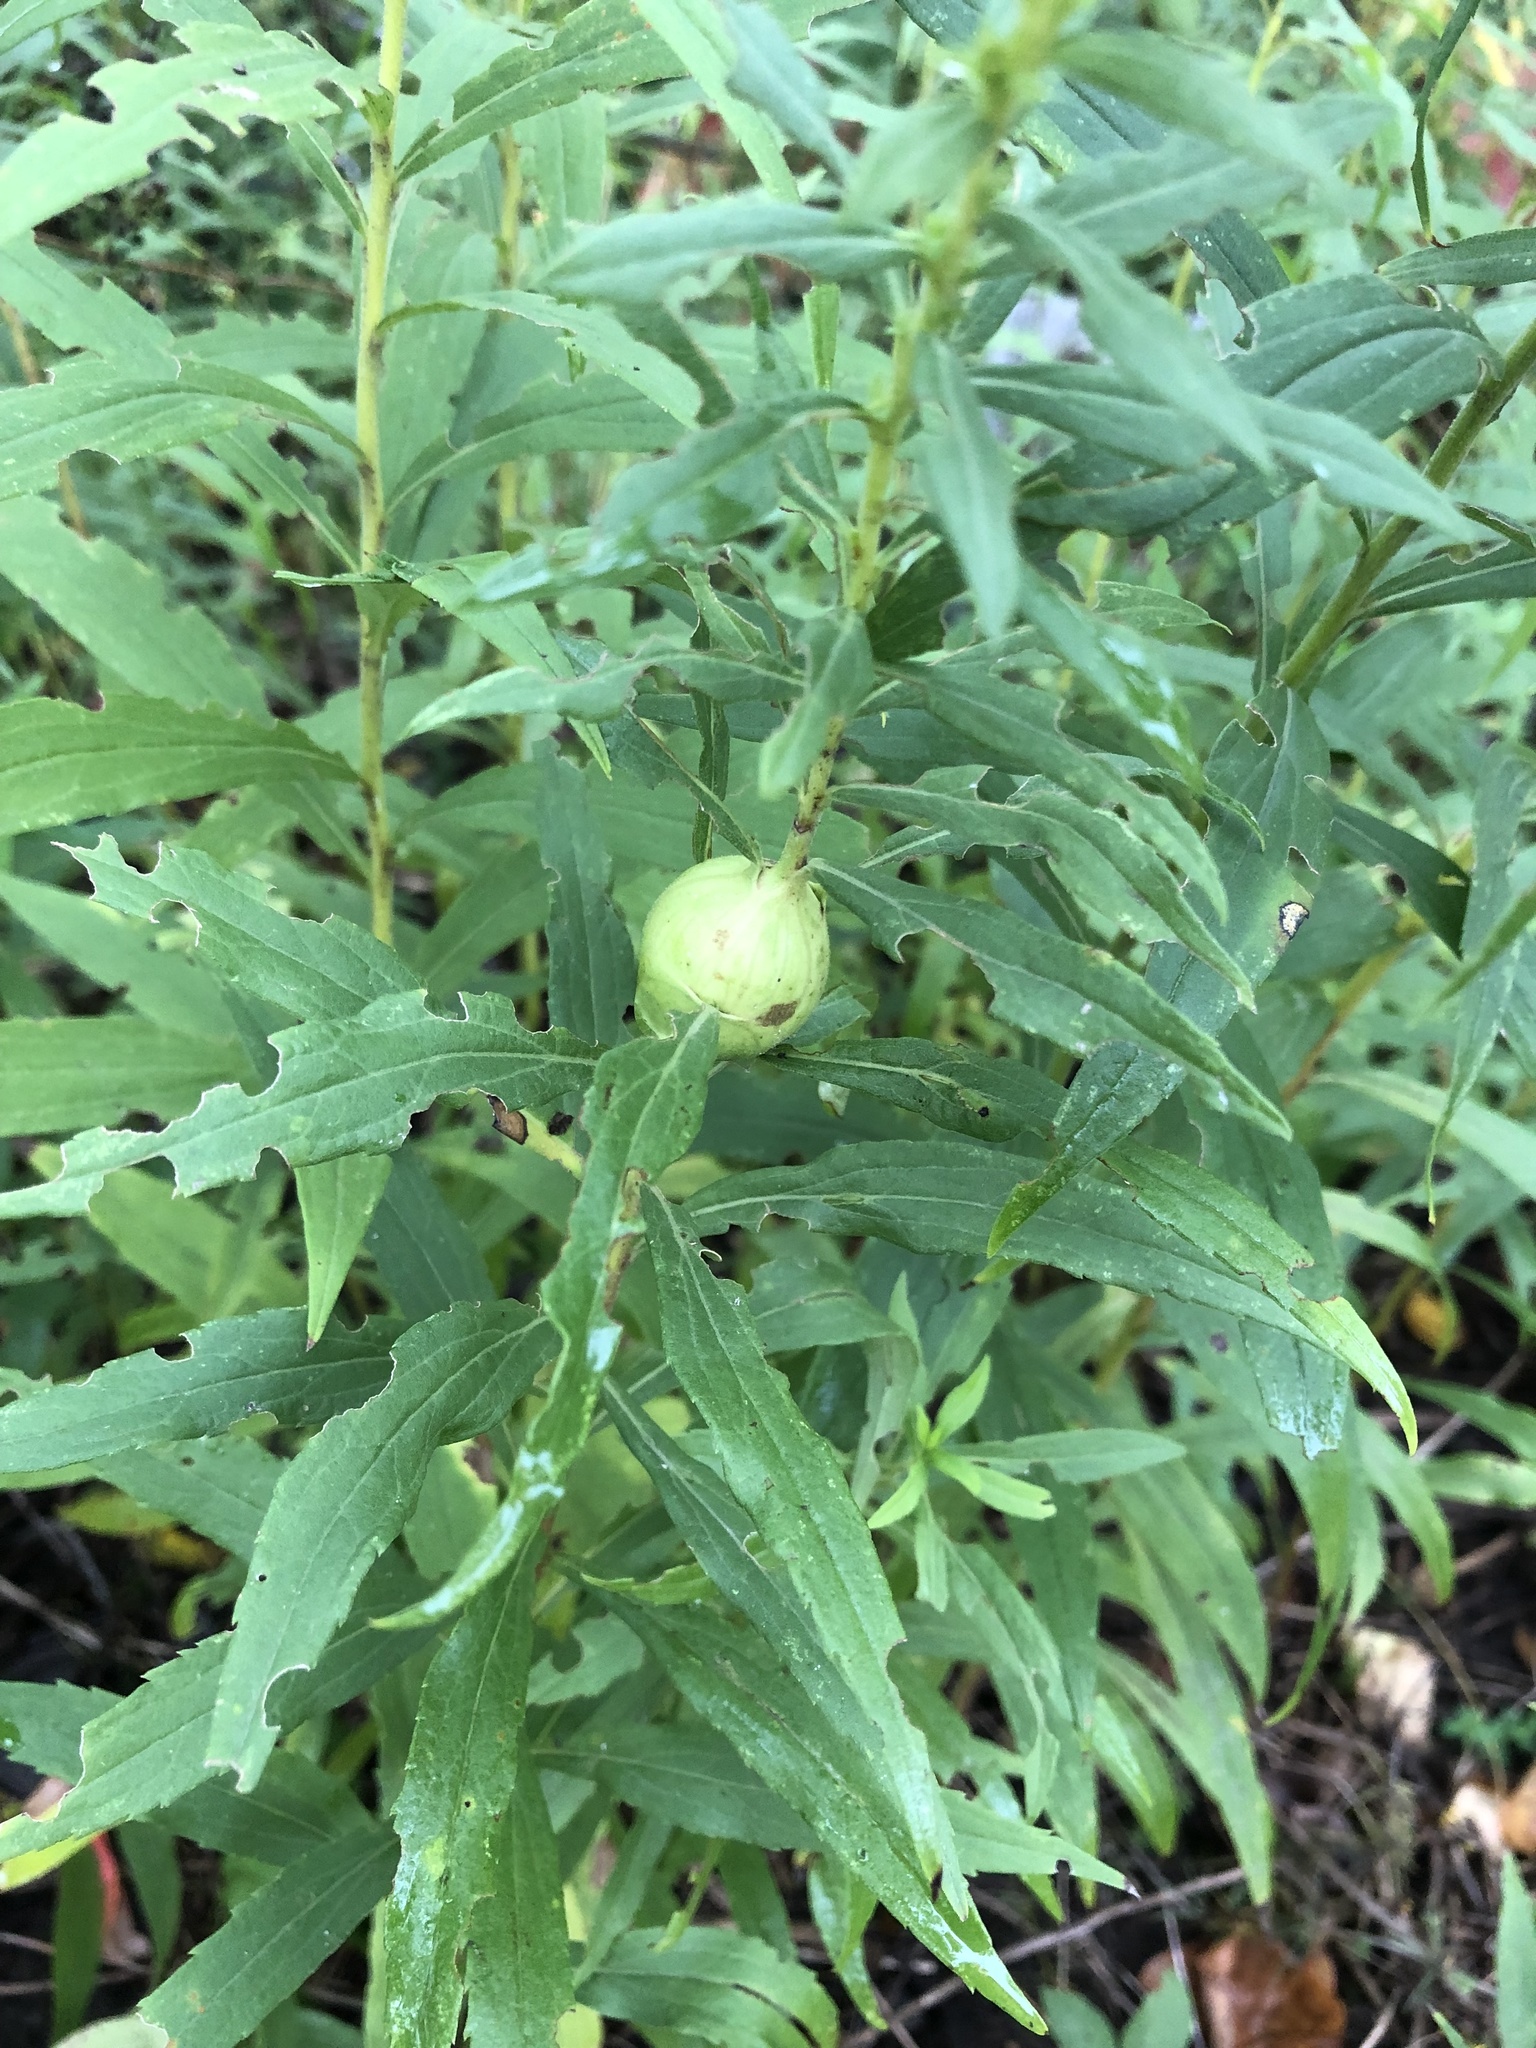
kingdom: Animalia
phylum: Arthropoda
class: Insecta
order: Diptera
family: Tephritidae
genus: Eurosta
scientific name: Eurosta solidaginis
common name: Goldenrod gall fly
